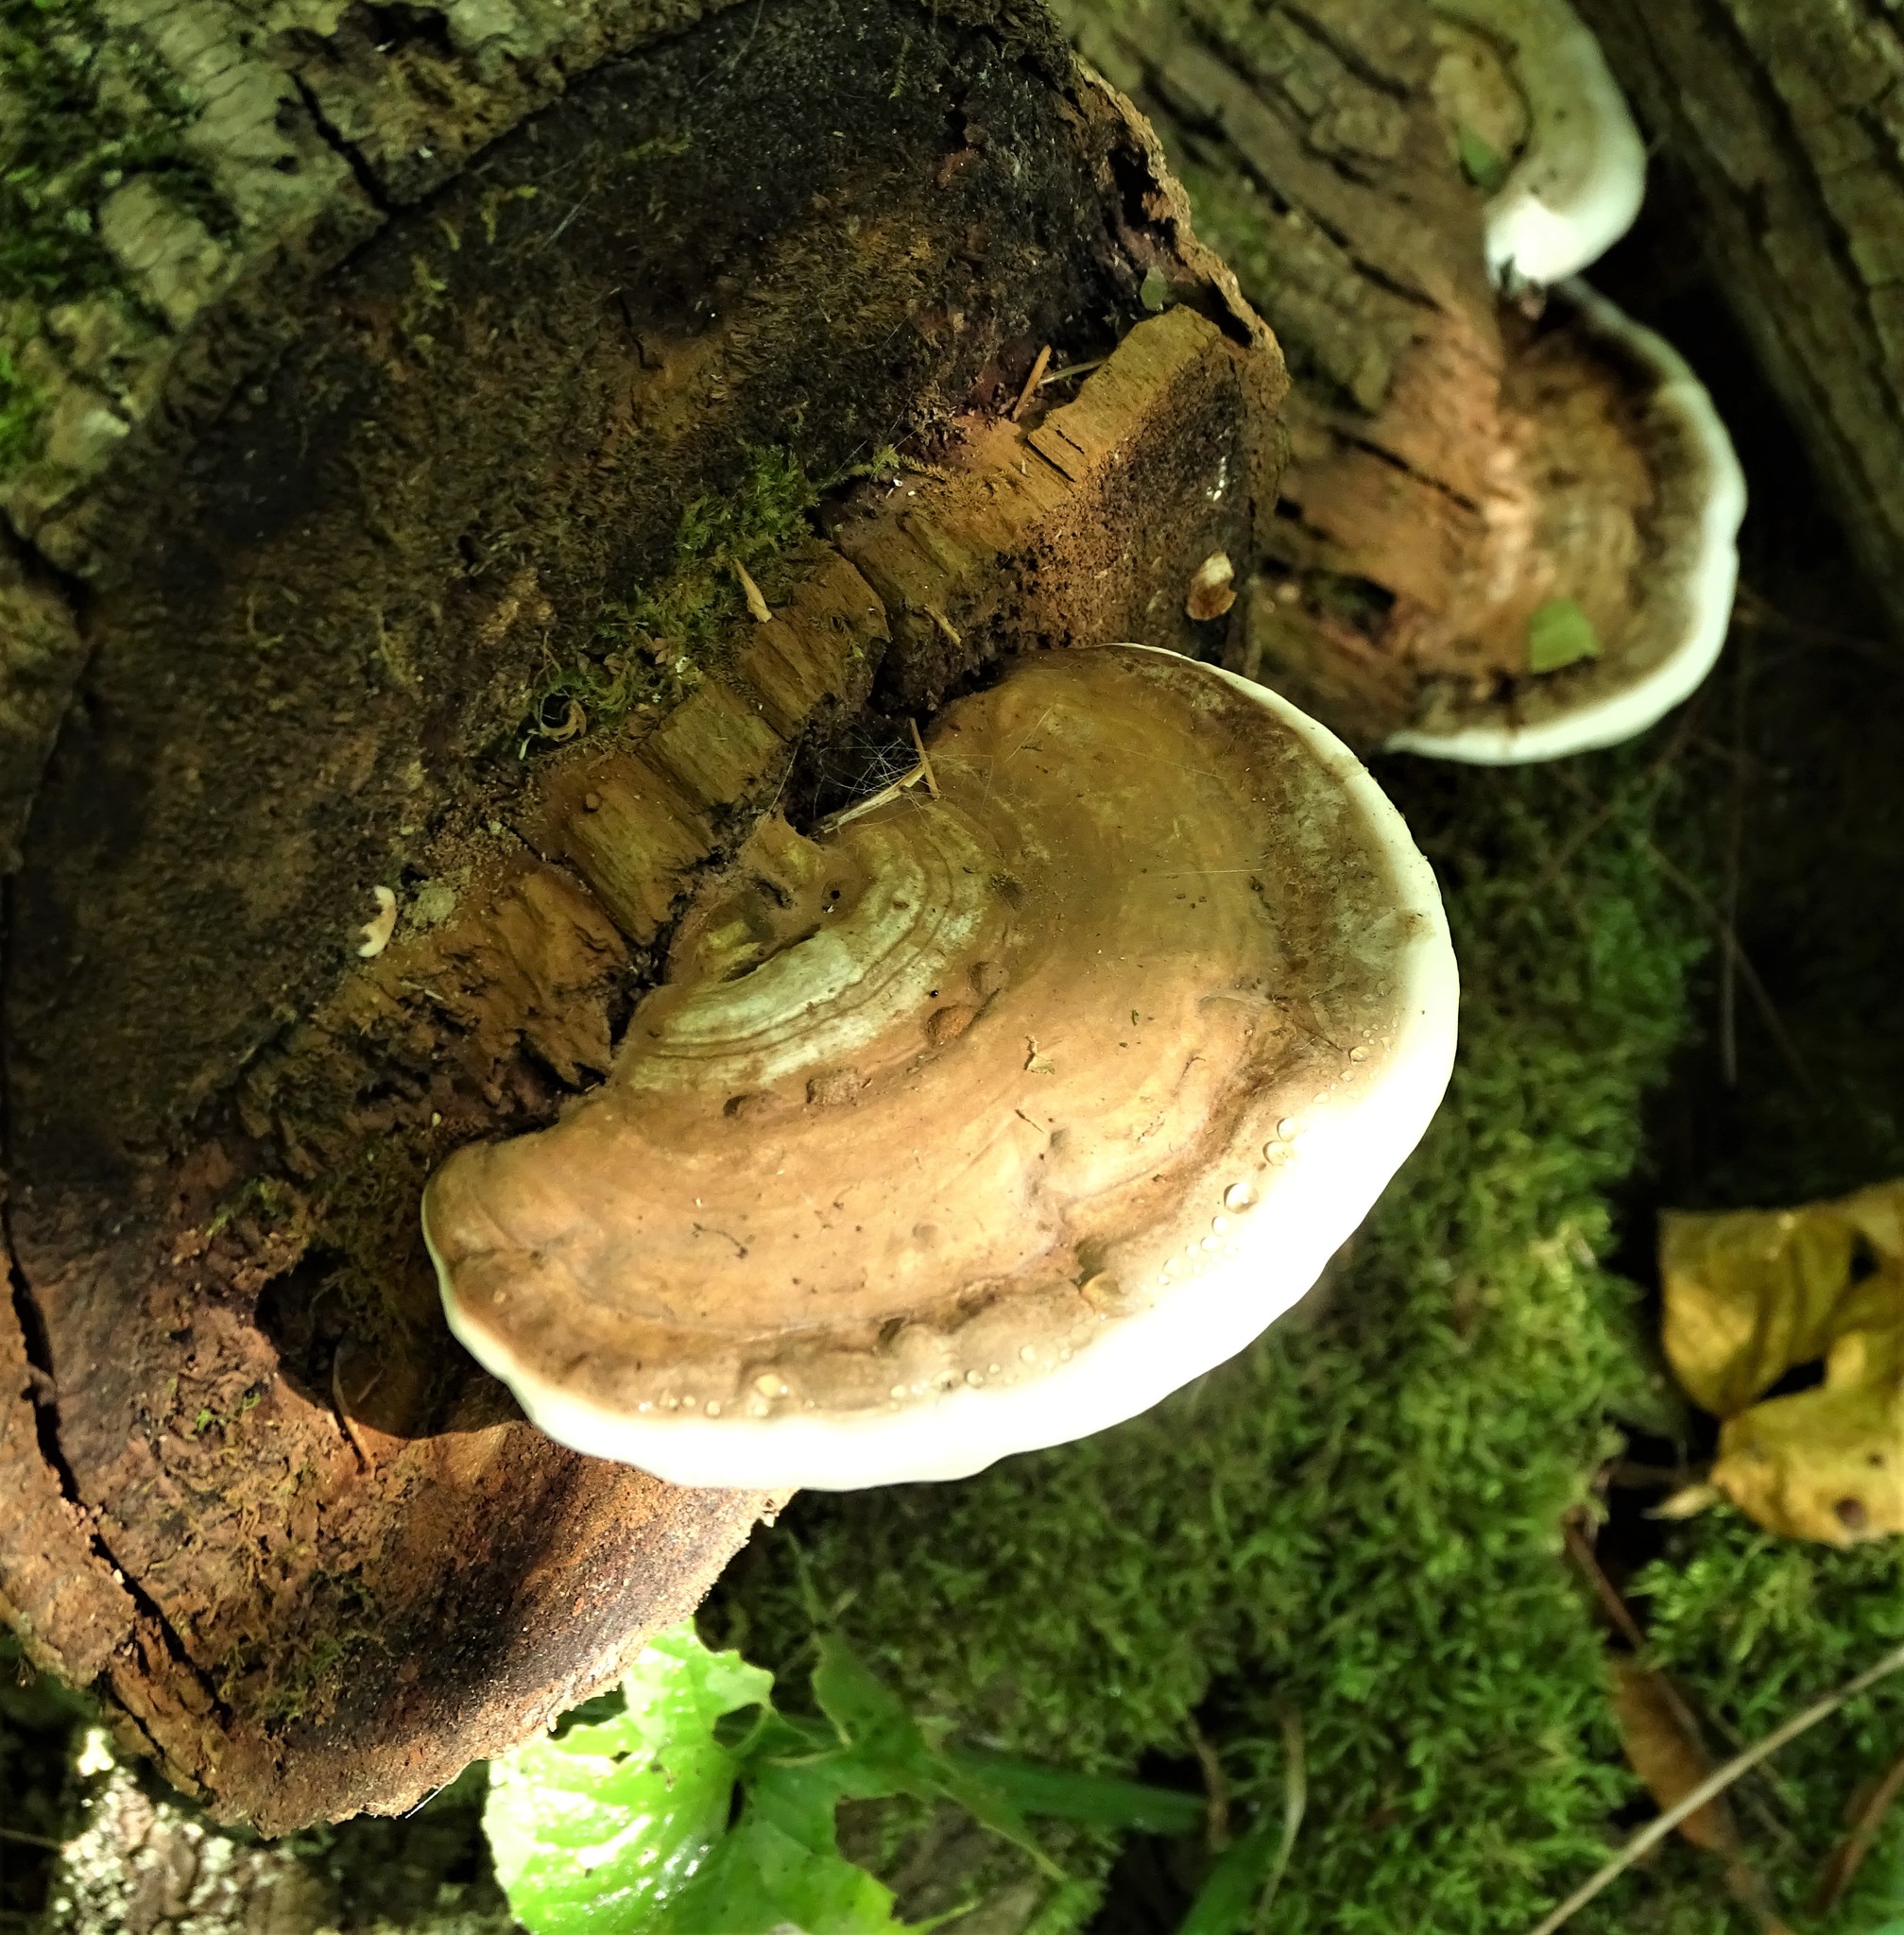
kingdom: Fungi
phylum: Basidiomycota
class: Agaricomycetes
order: Polyporales
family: Polyporaceae
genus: Ganoderma
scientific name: Ganoderma applanatum
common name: Artist's bracket
